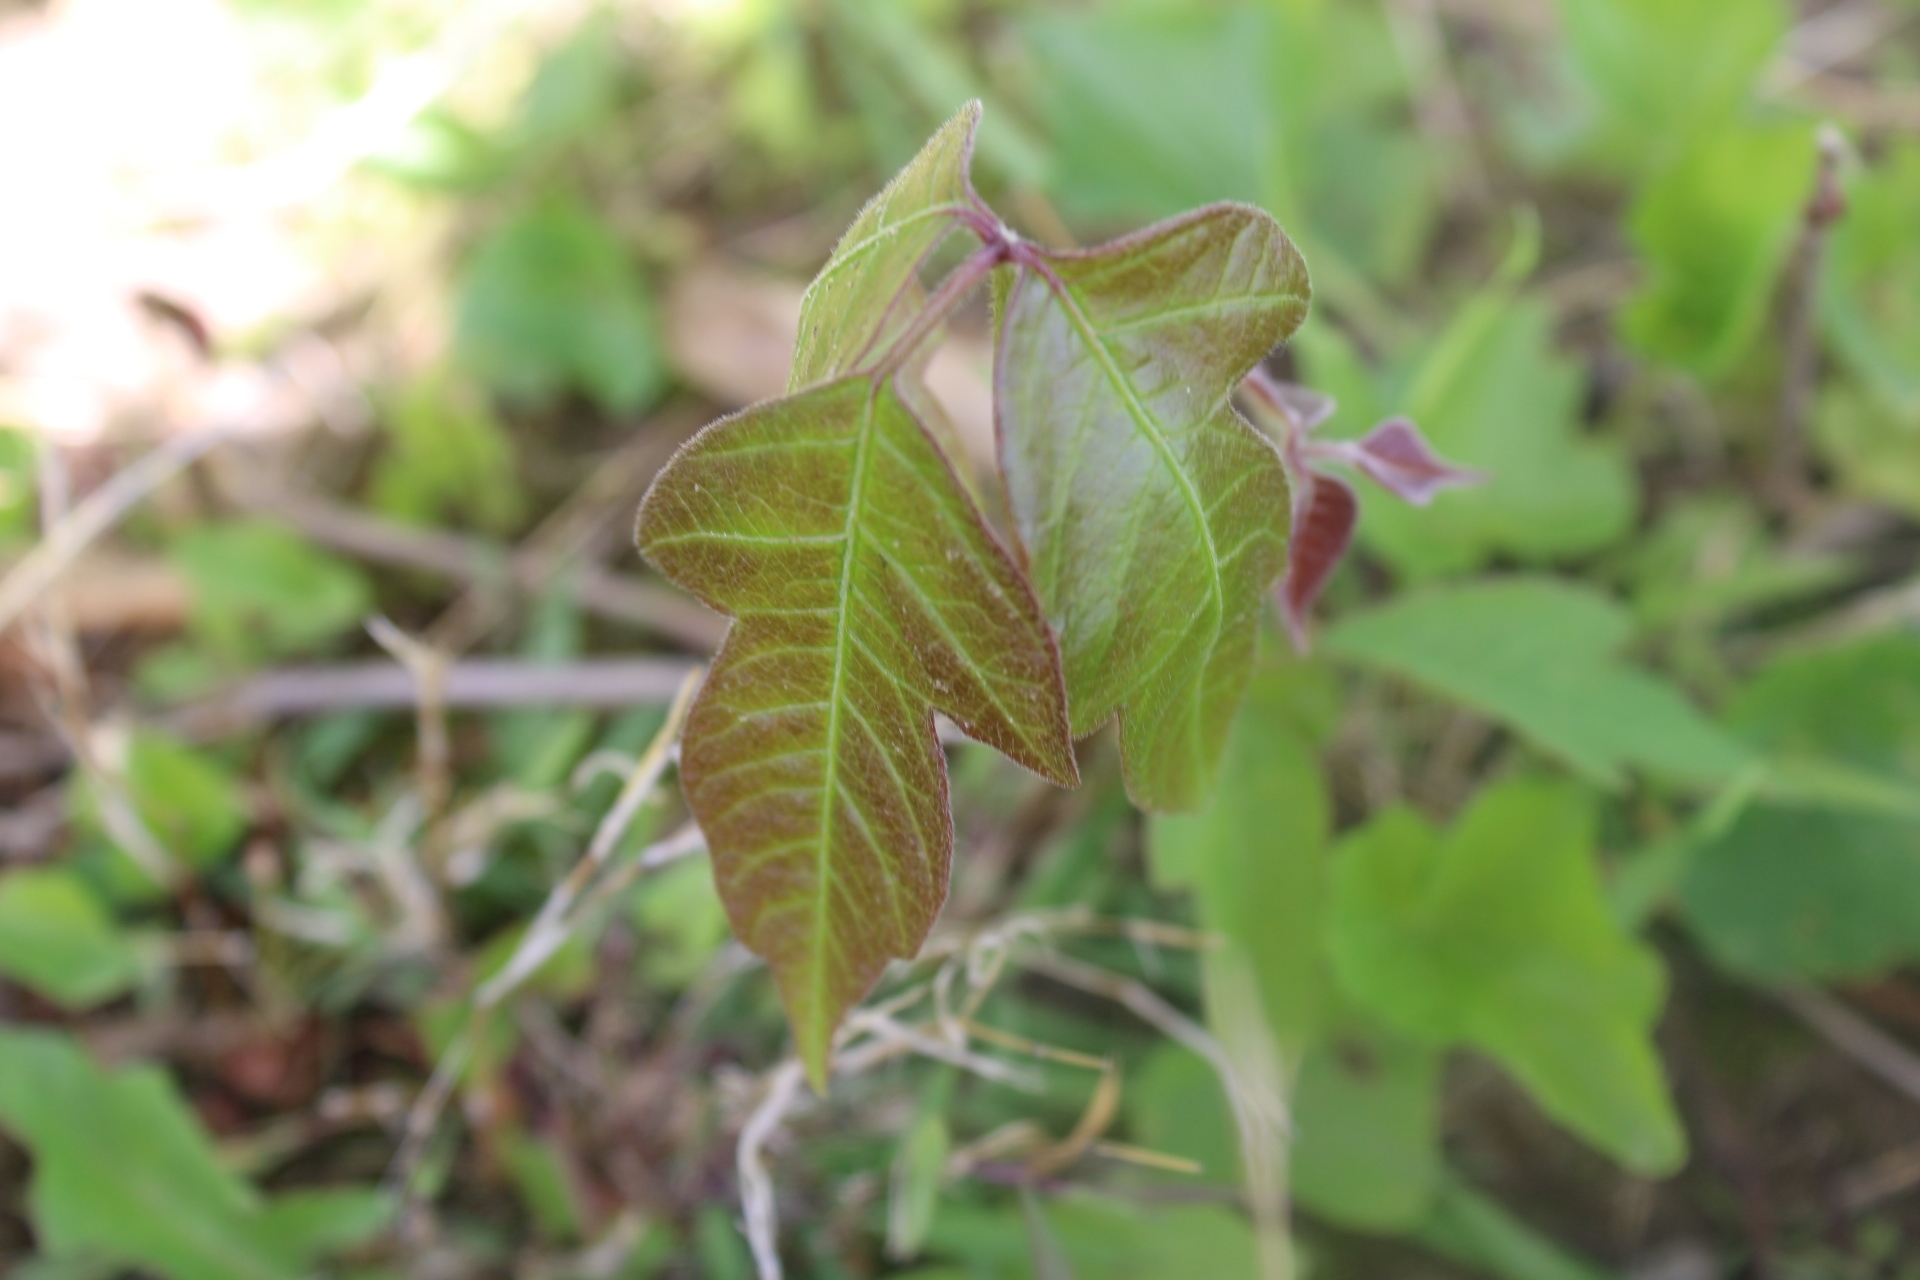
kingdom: Plantae
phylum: Tracheophyta
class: Magnoliopsida
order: Sapindales
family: Anacardiaceae
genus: Toxicodendron
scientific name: Toxicodendron radicans
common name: Poison ivy
